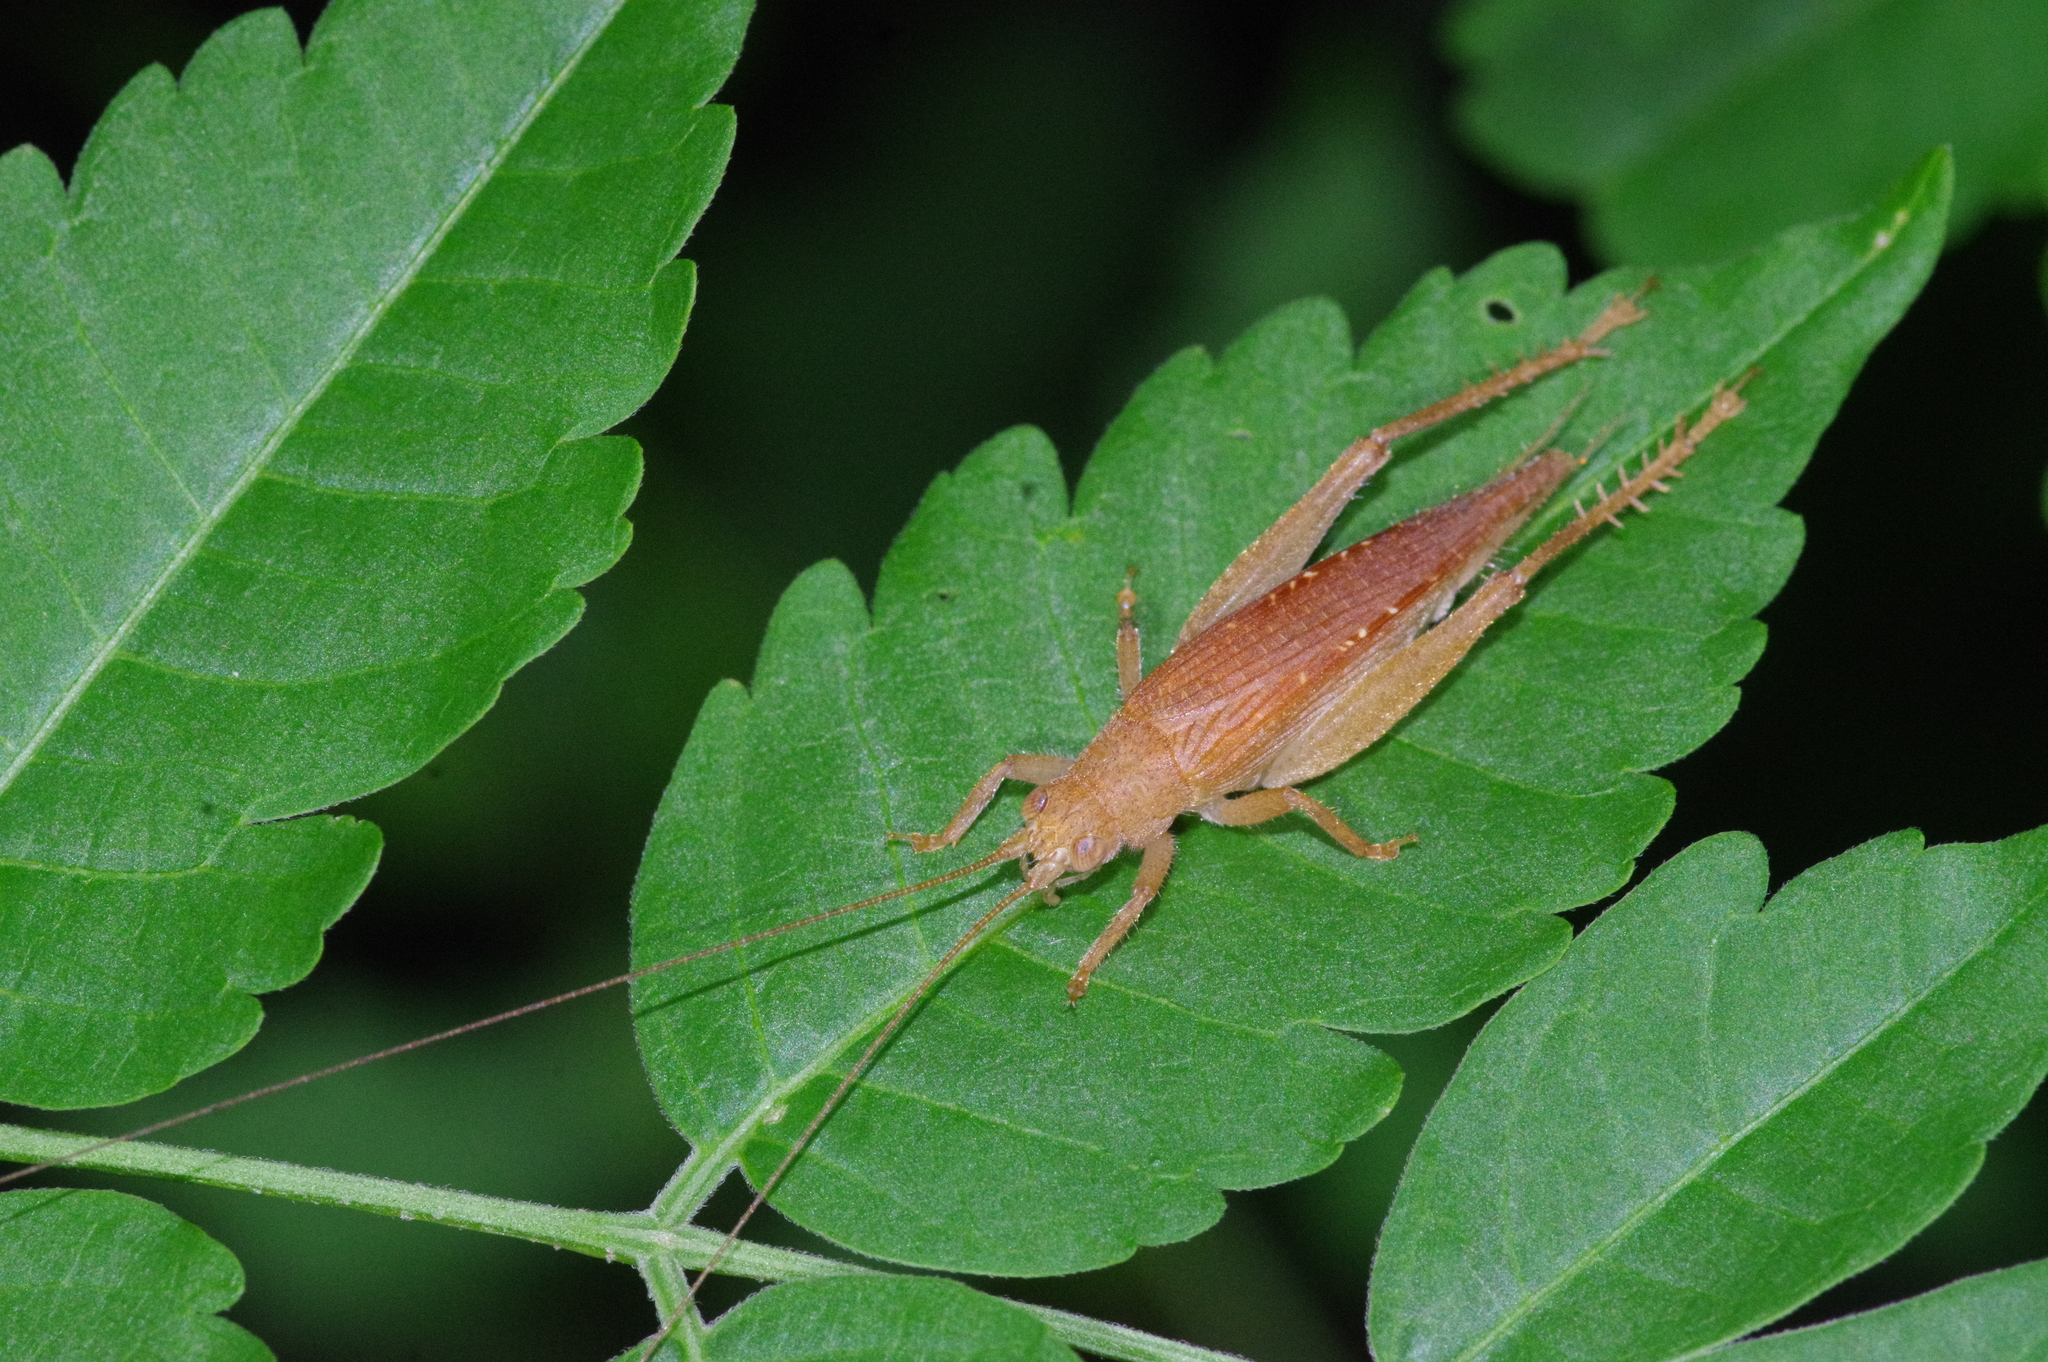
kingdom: Animalia
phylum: Arthropoda
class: Insecta
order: Orthoptera
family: Gryllidae
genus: Aphonoides
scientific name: Aphonoides rufescens
